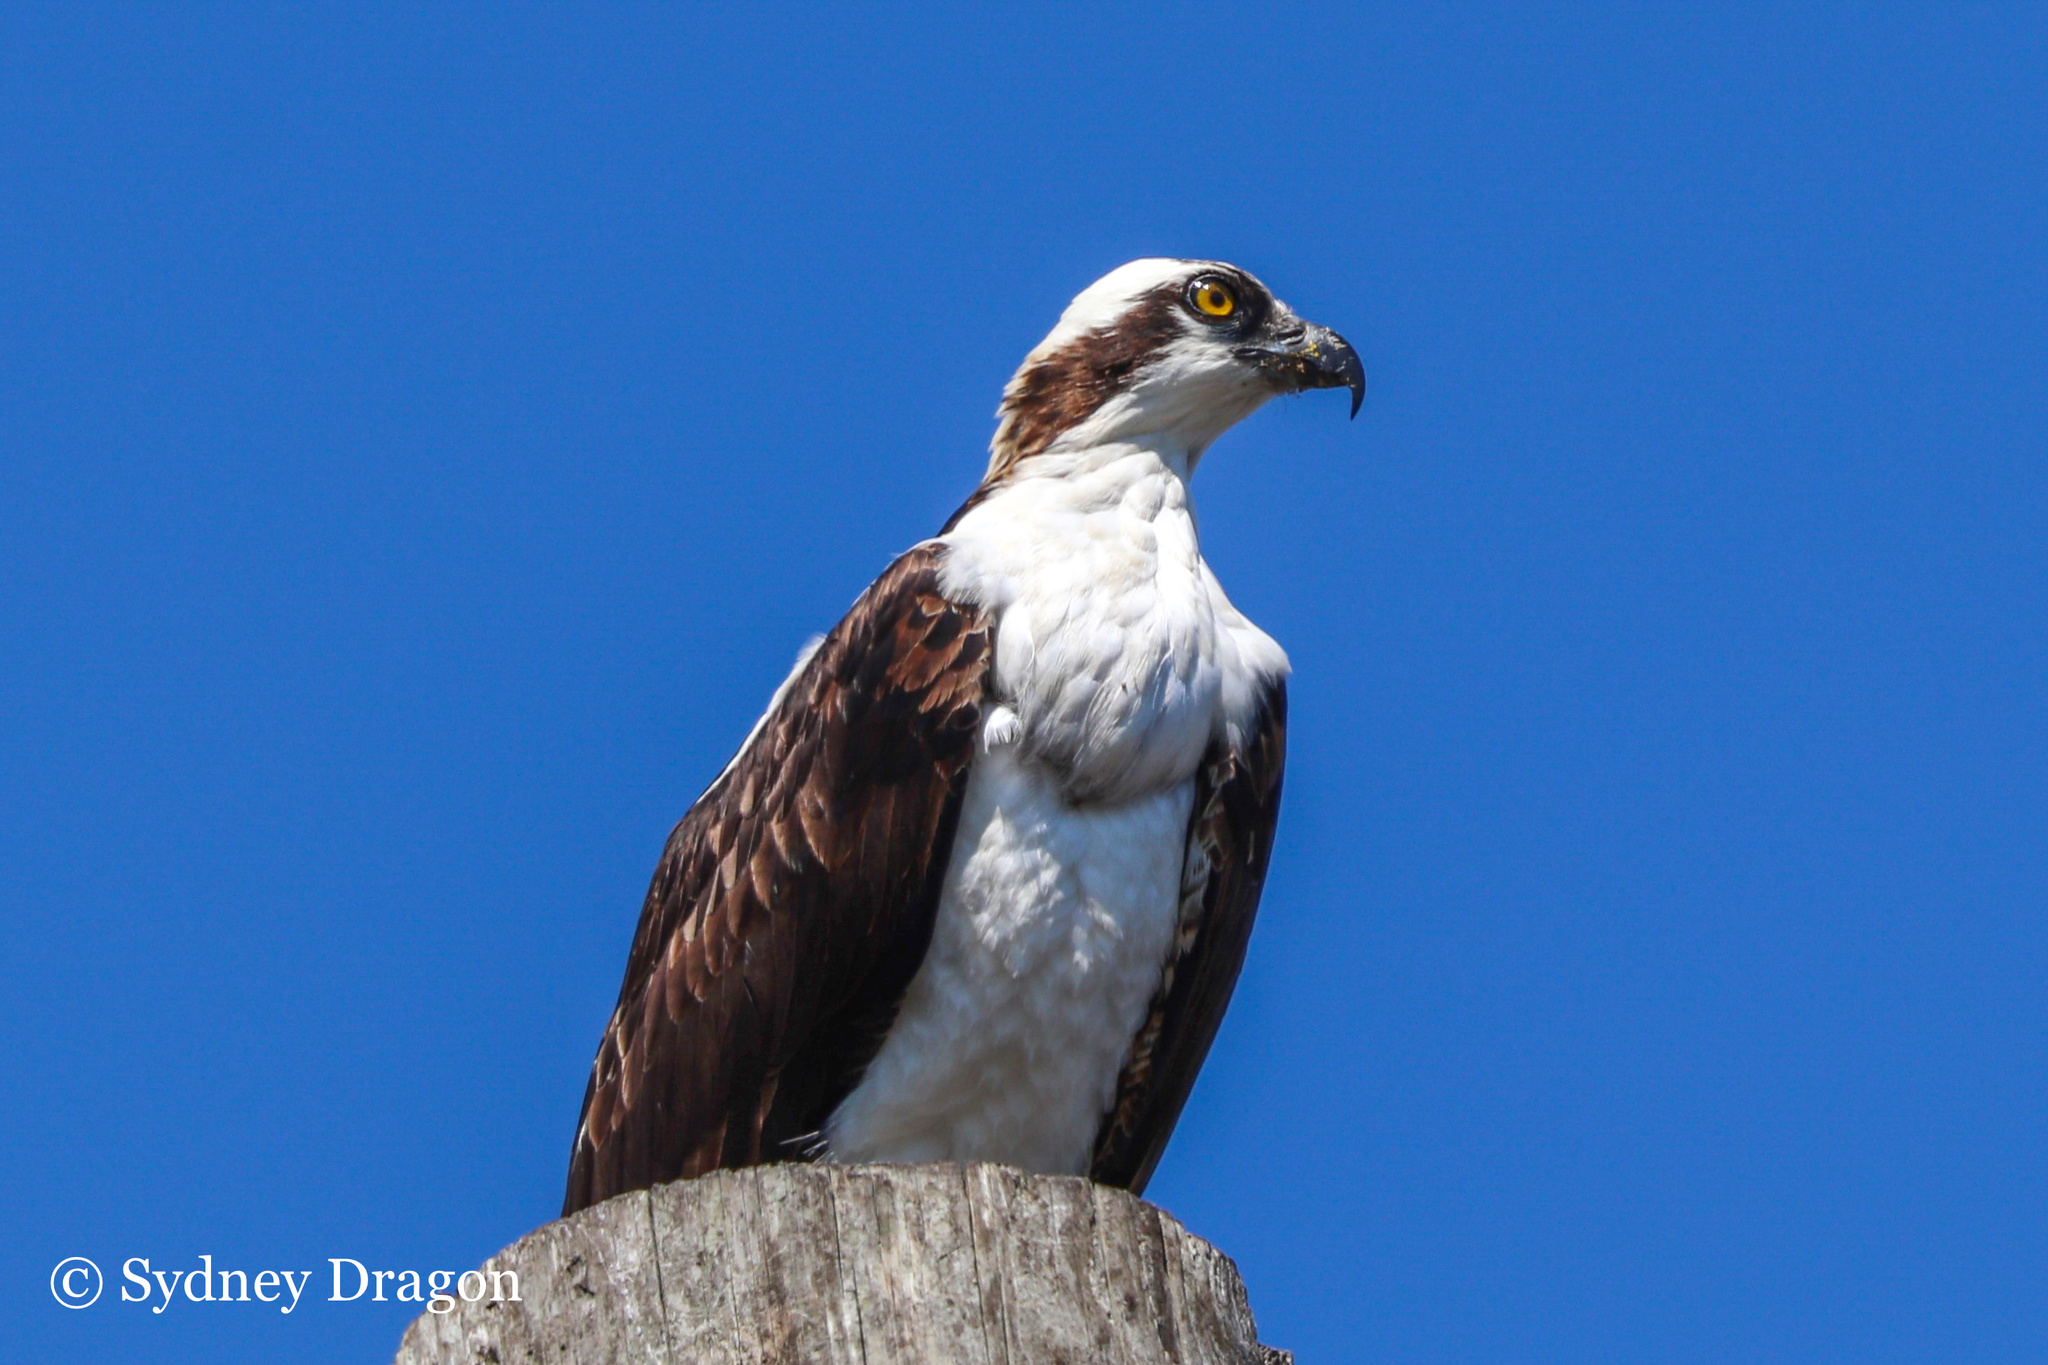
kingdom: Animalia
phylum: Chordata
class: Aves
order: Accipitriformes
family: Pandionidae
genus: Pandion
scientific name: Pandion haliaetus
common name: Osprey
